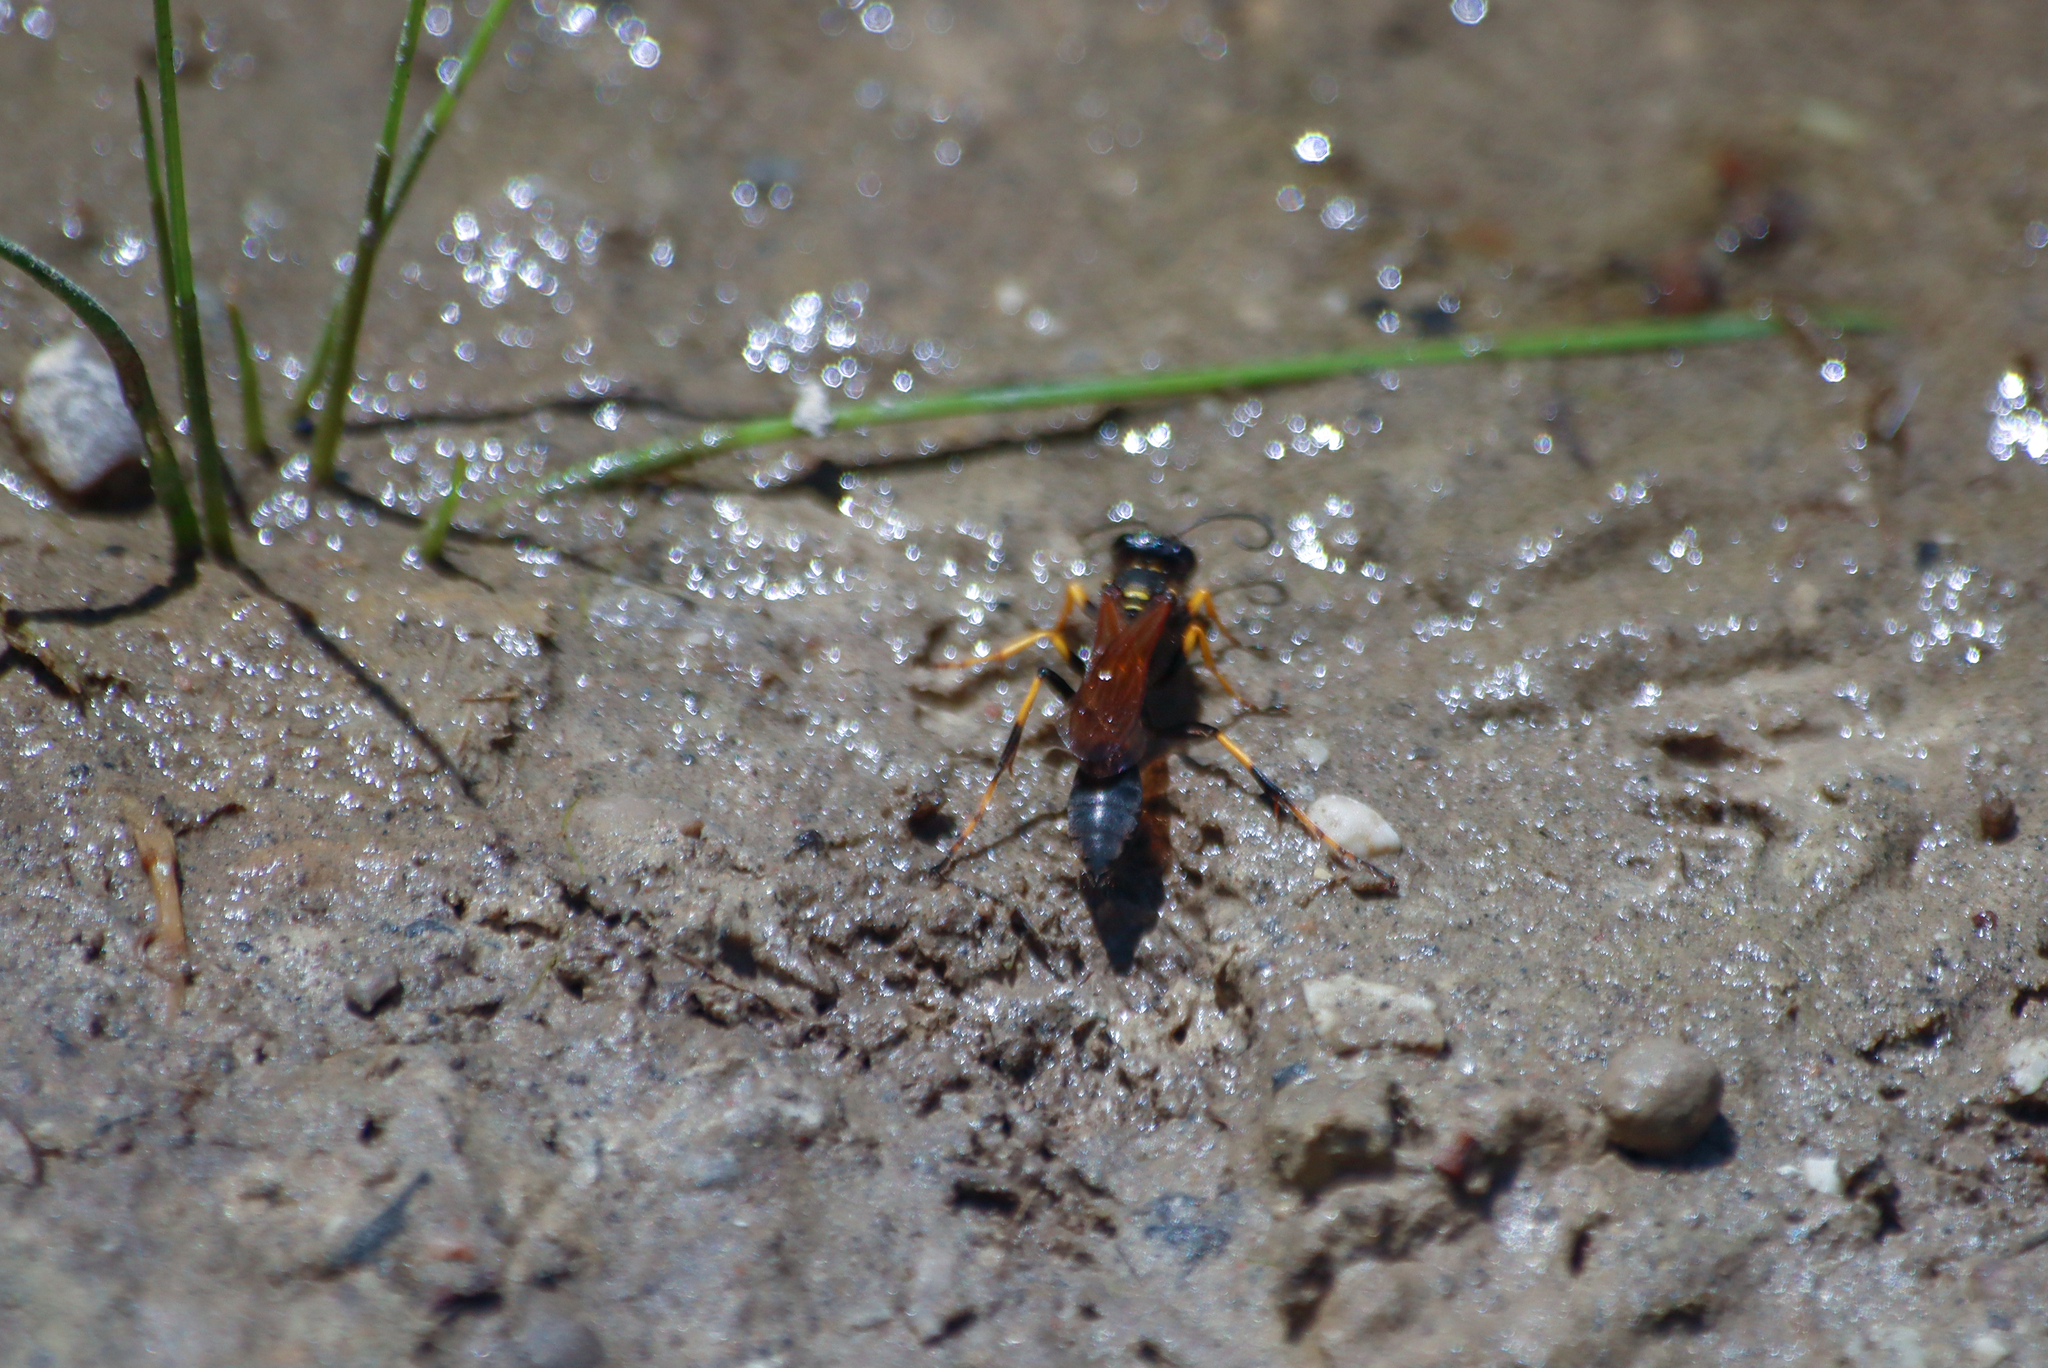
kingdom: Animalia
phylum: Arthropoda
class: Insecta
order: Hymenoptera
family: Sphecidae
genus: Sceliphron
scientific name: Sceliphron caementarium
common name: Mud dauber
